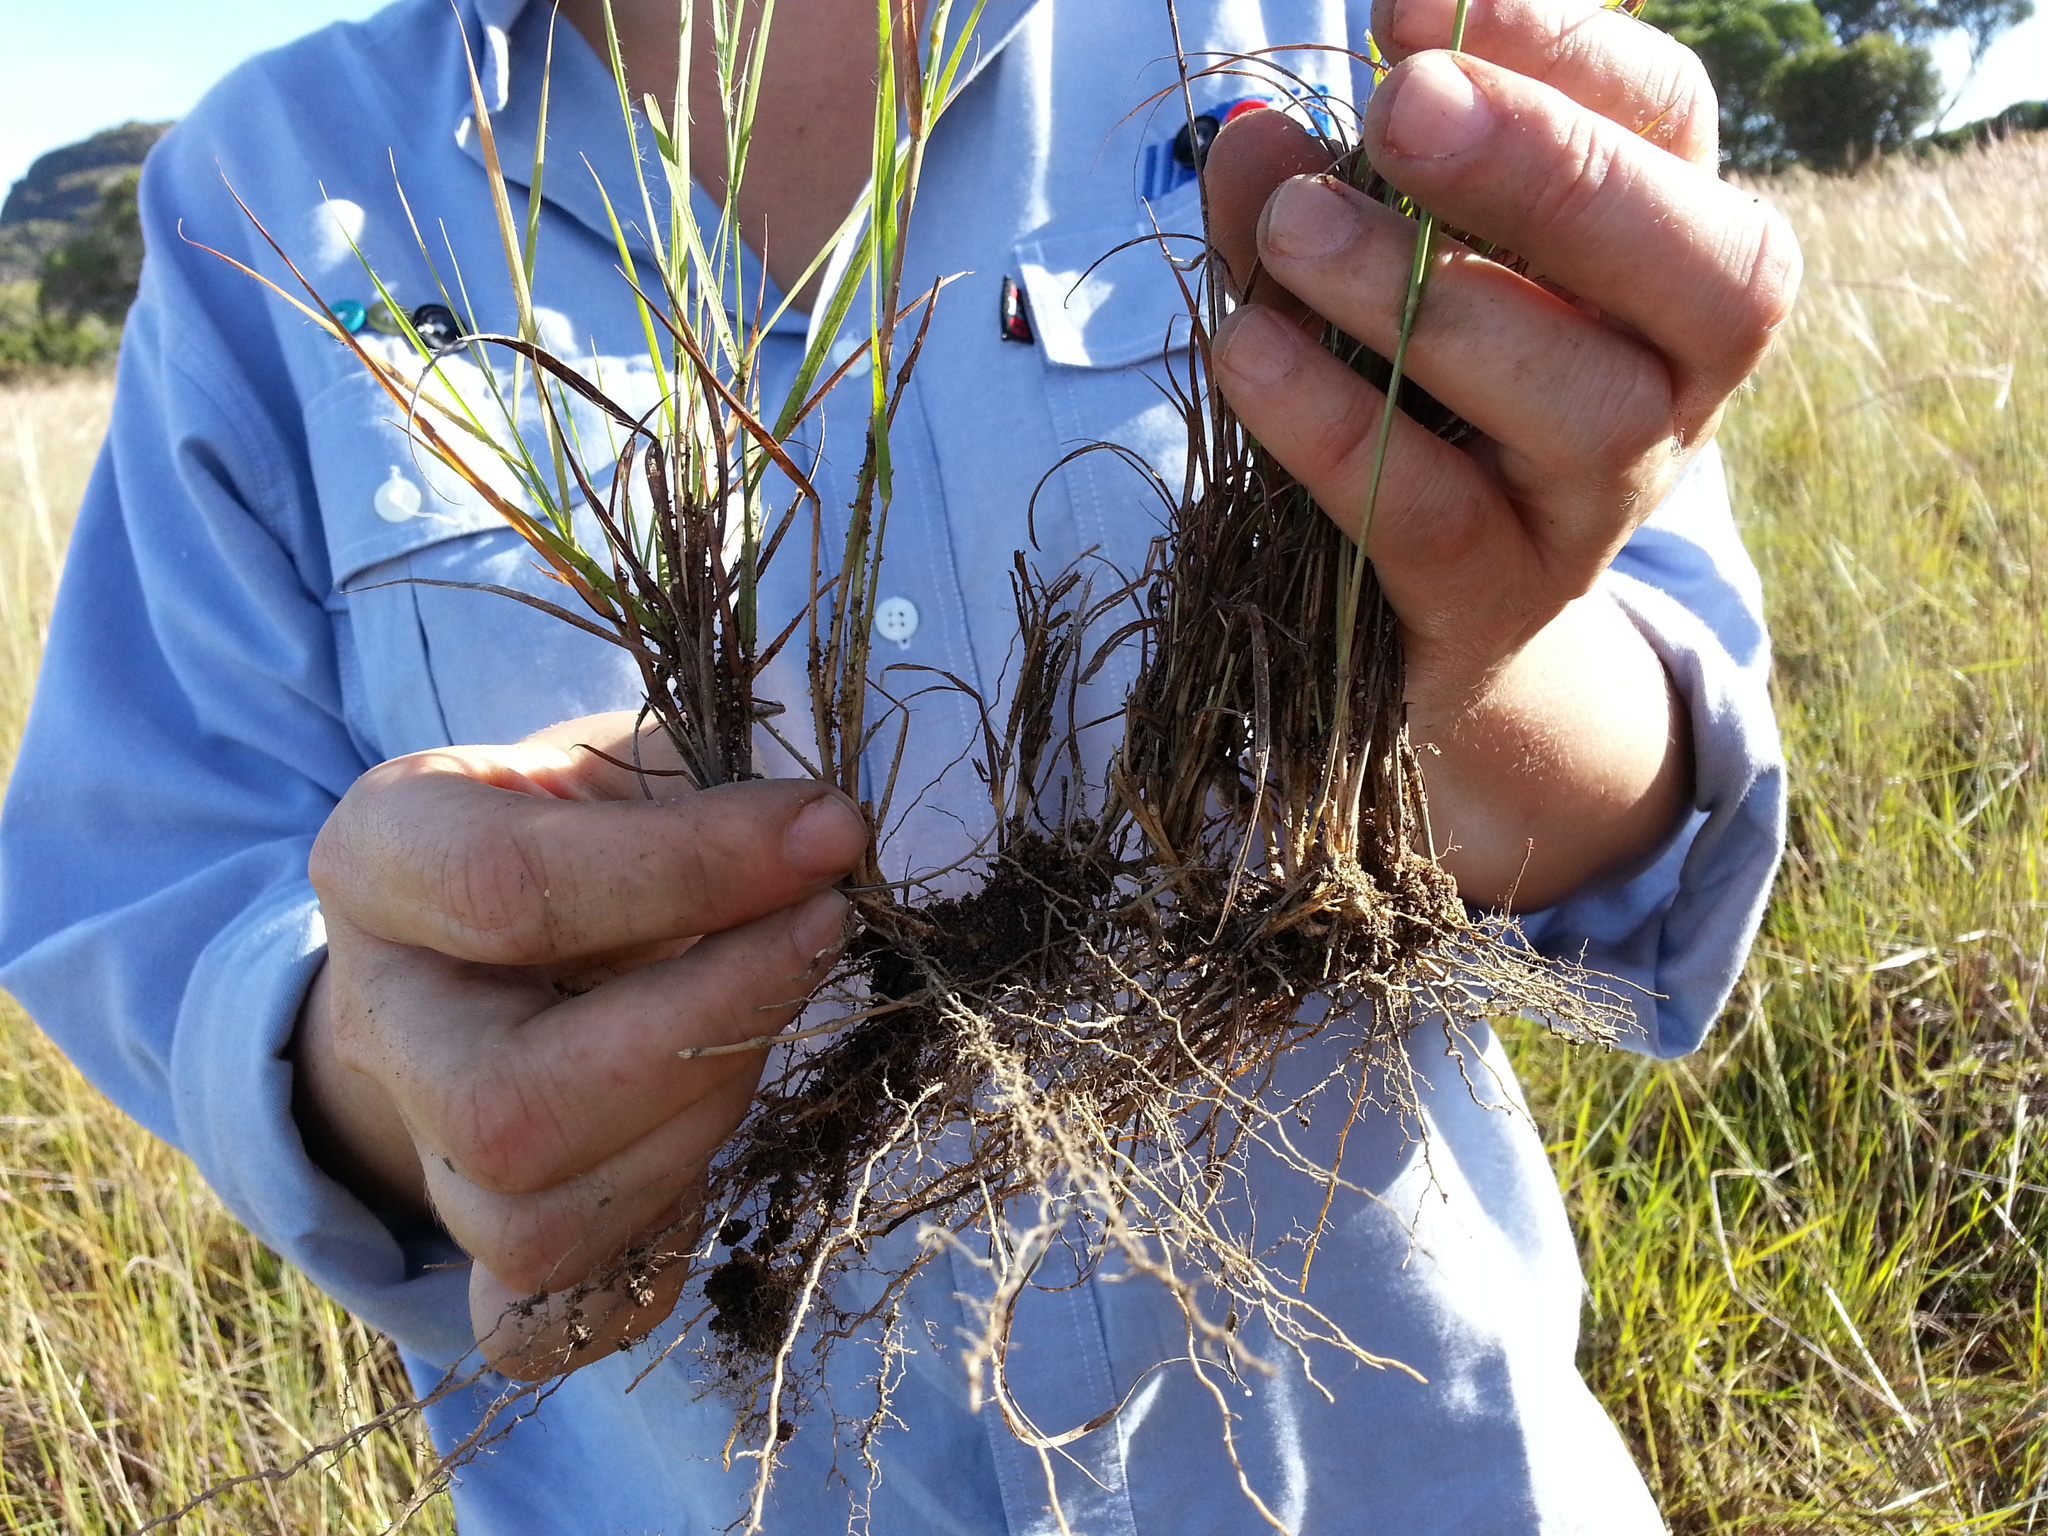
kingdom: Plantae
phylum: Tracheophyta
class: Liliopsida
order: Poales
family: Poaceae
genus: Loudetia
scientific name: Loudetia filifolia
